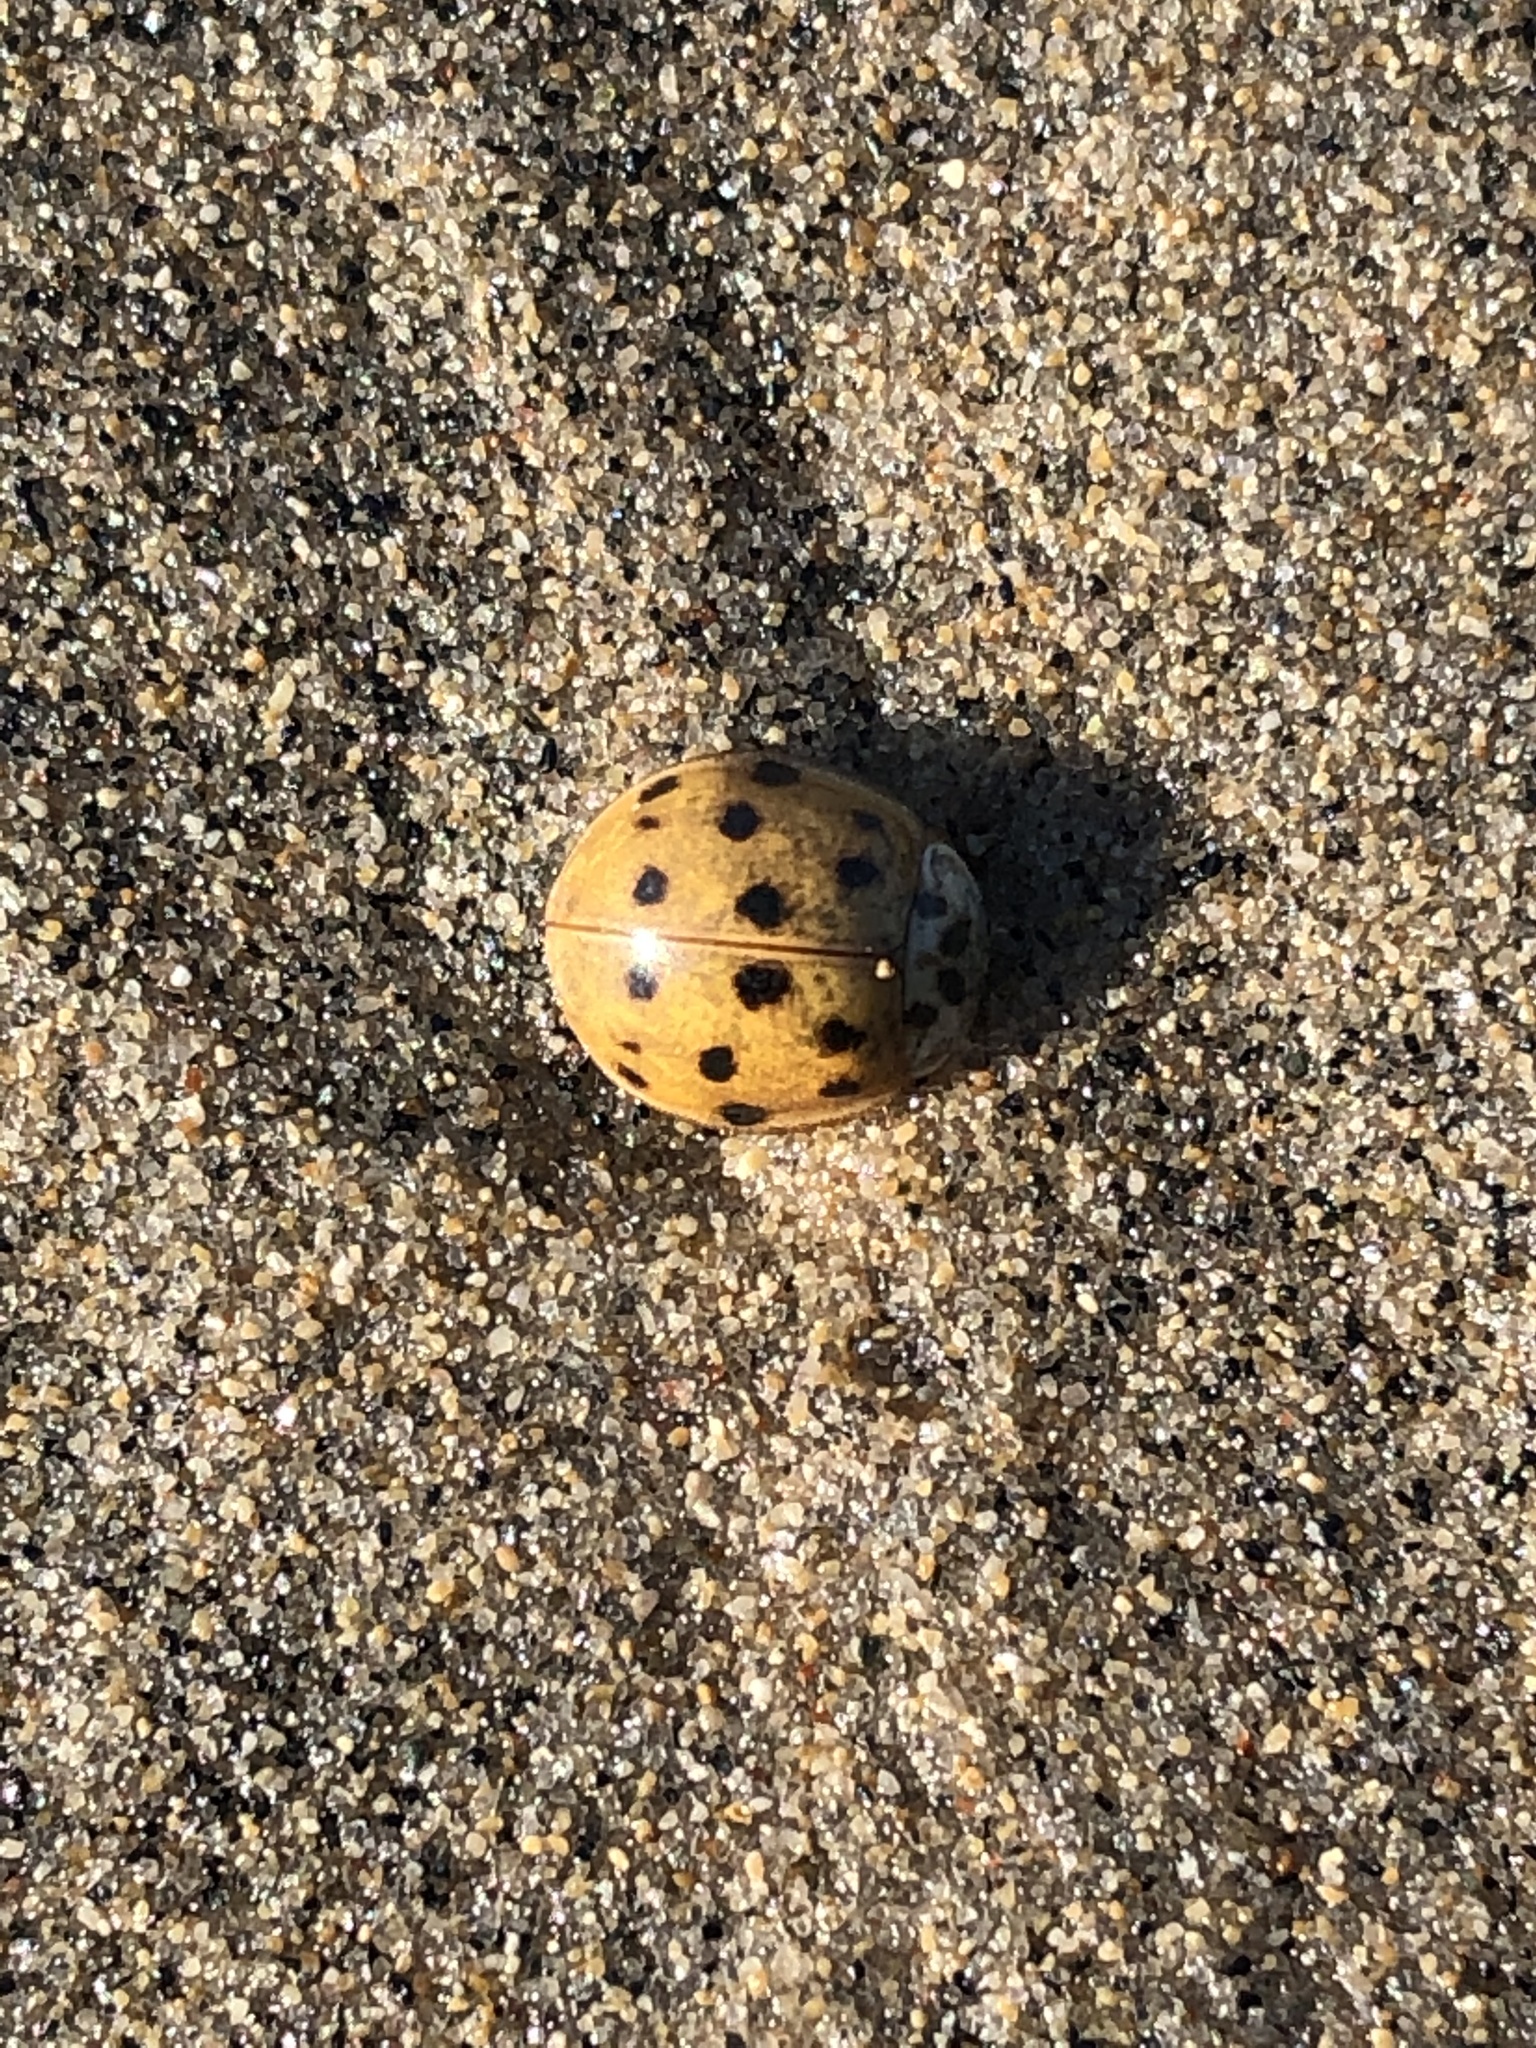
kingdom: Animalia
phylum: Arthropoda
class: Insecta
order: Coleoptera
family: Coccinellidae
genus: Harmonia
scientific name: Harmonia axyridis
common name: Harlequin ladybird
